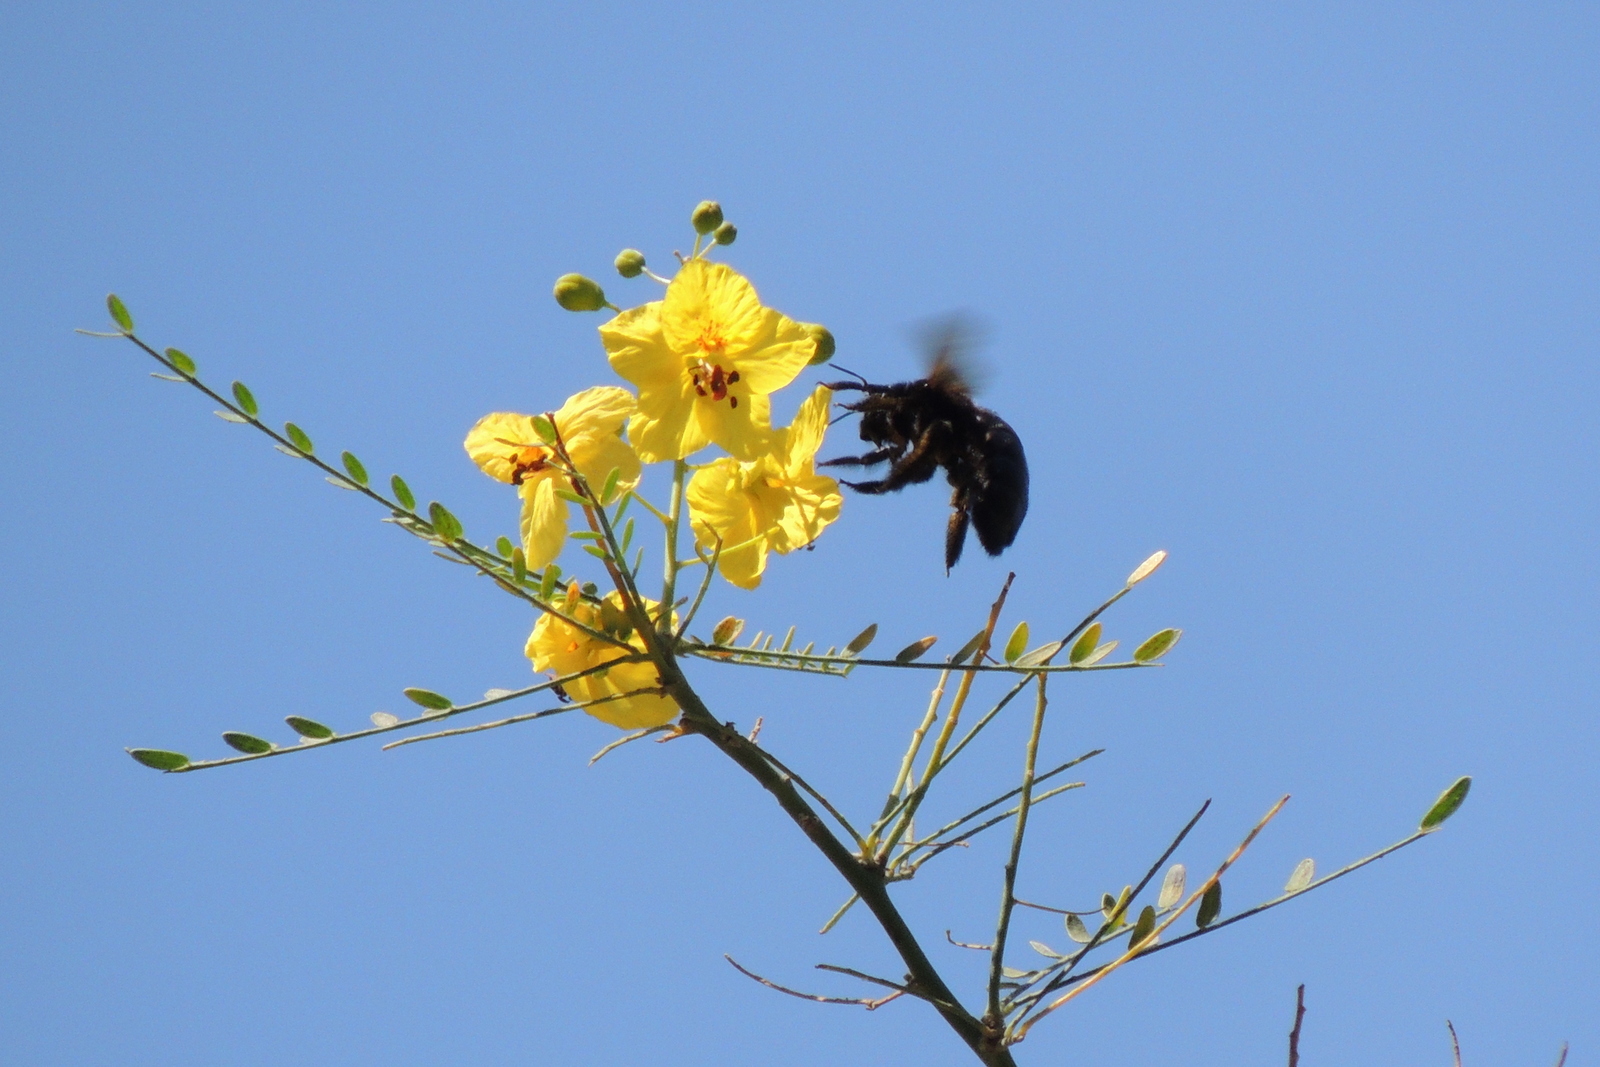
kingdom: Animalia
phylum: Arthropoda
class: Insecta
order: Hymenoptera
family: Apidae
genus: Xylocopa
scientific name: Xylocopa
